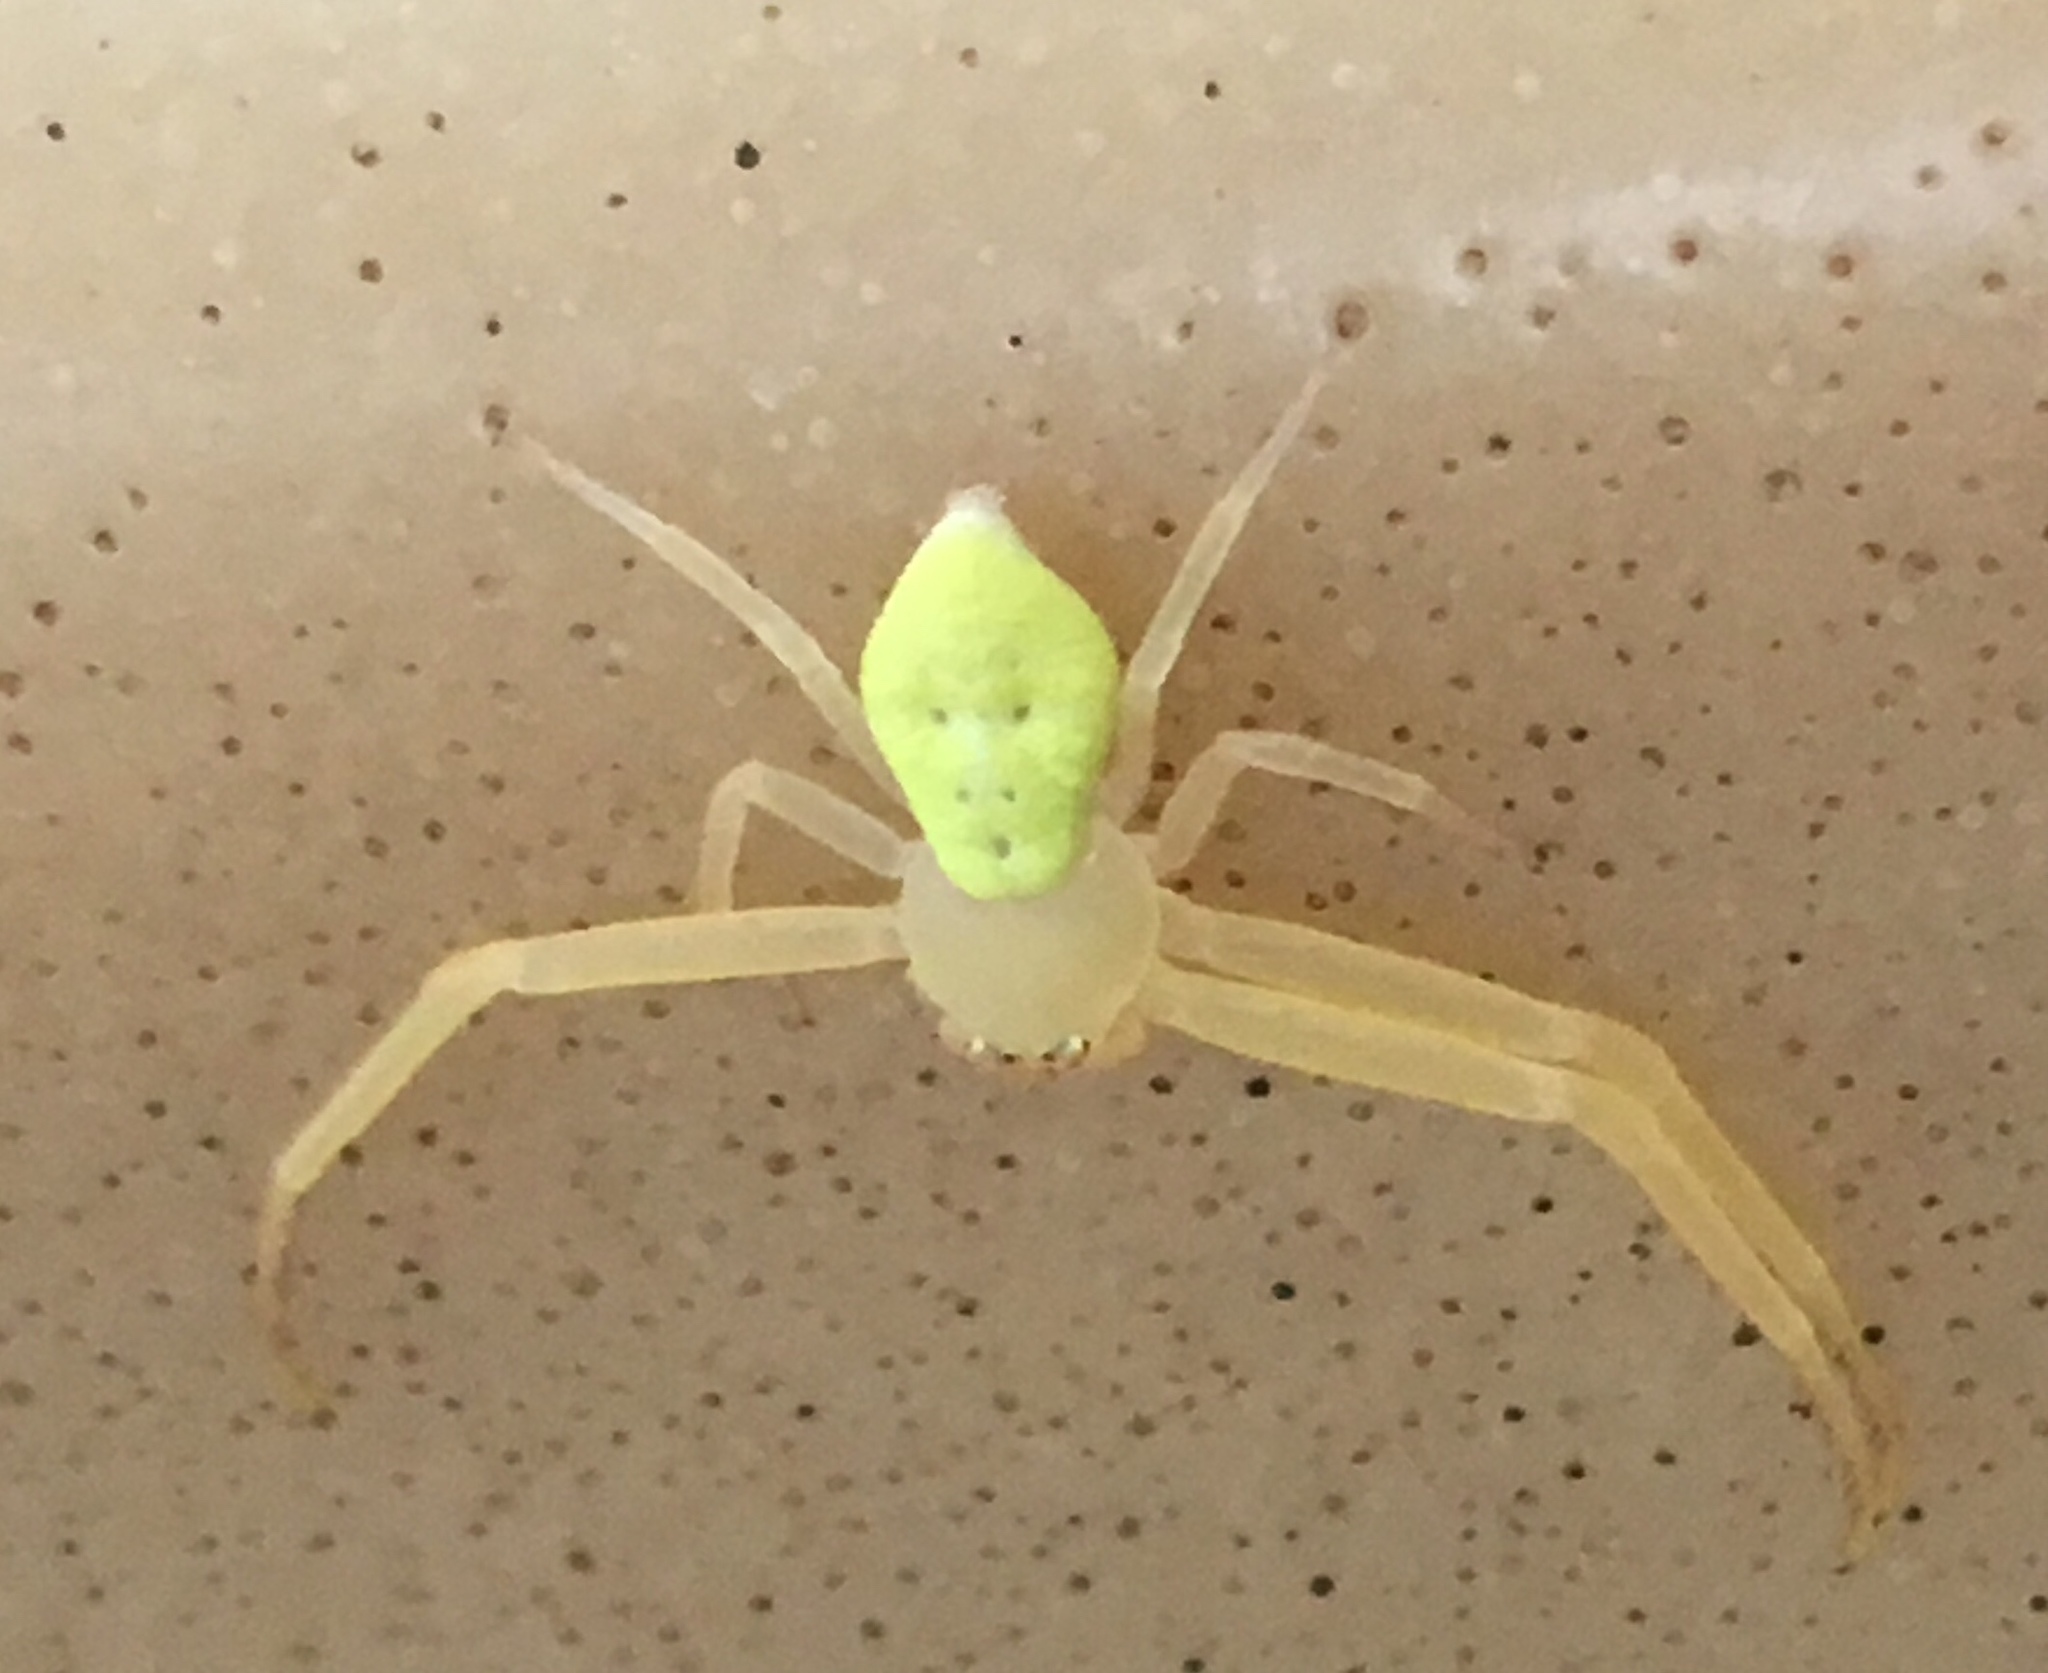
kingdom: Animalia
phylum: Arthropoda
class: Arachnida
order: Araneae
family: Thomisidae
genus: Misumessus
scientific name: Misumessus oblongus
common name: American green crab spider
